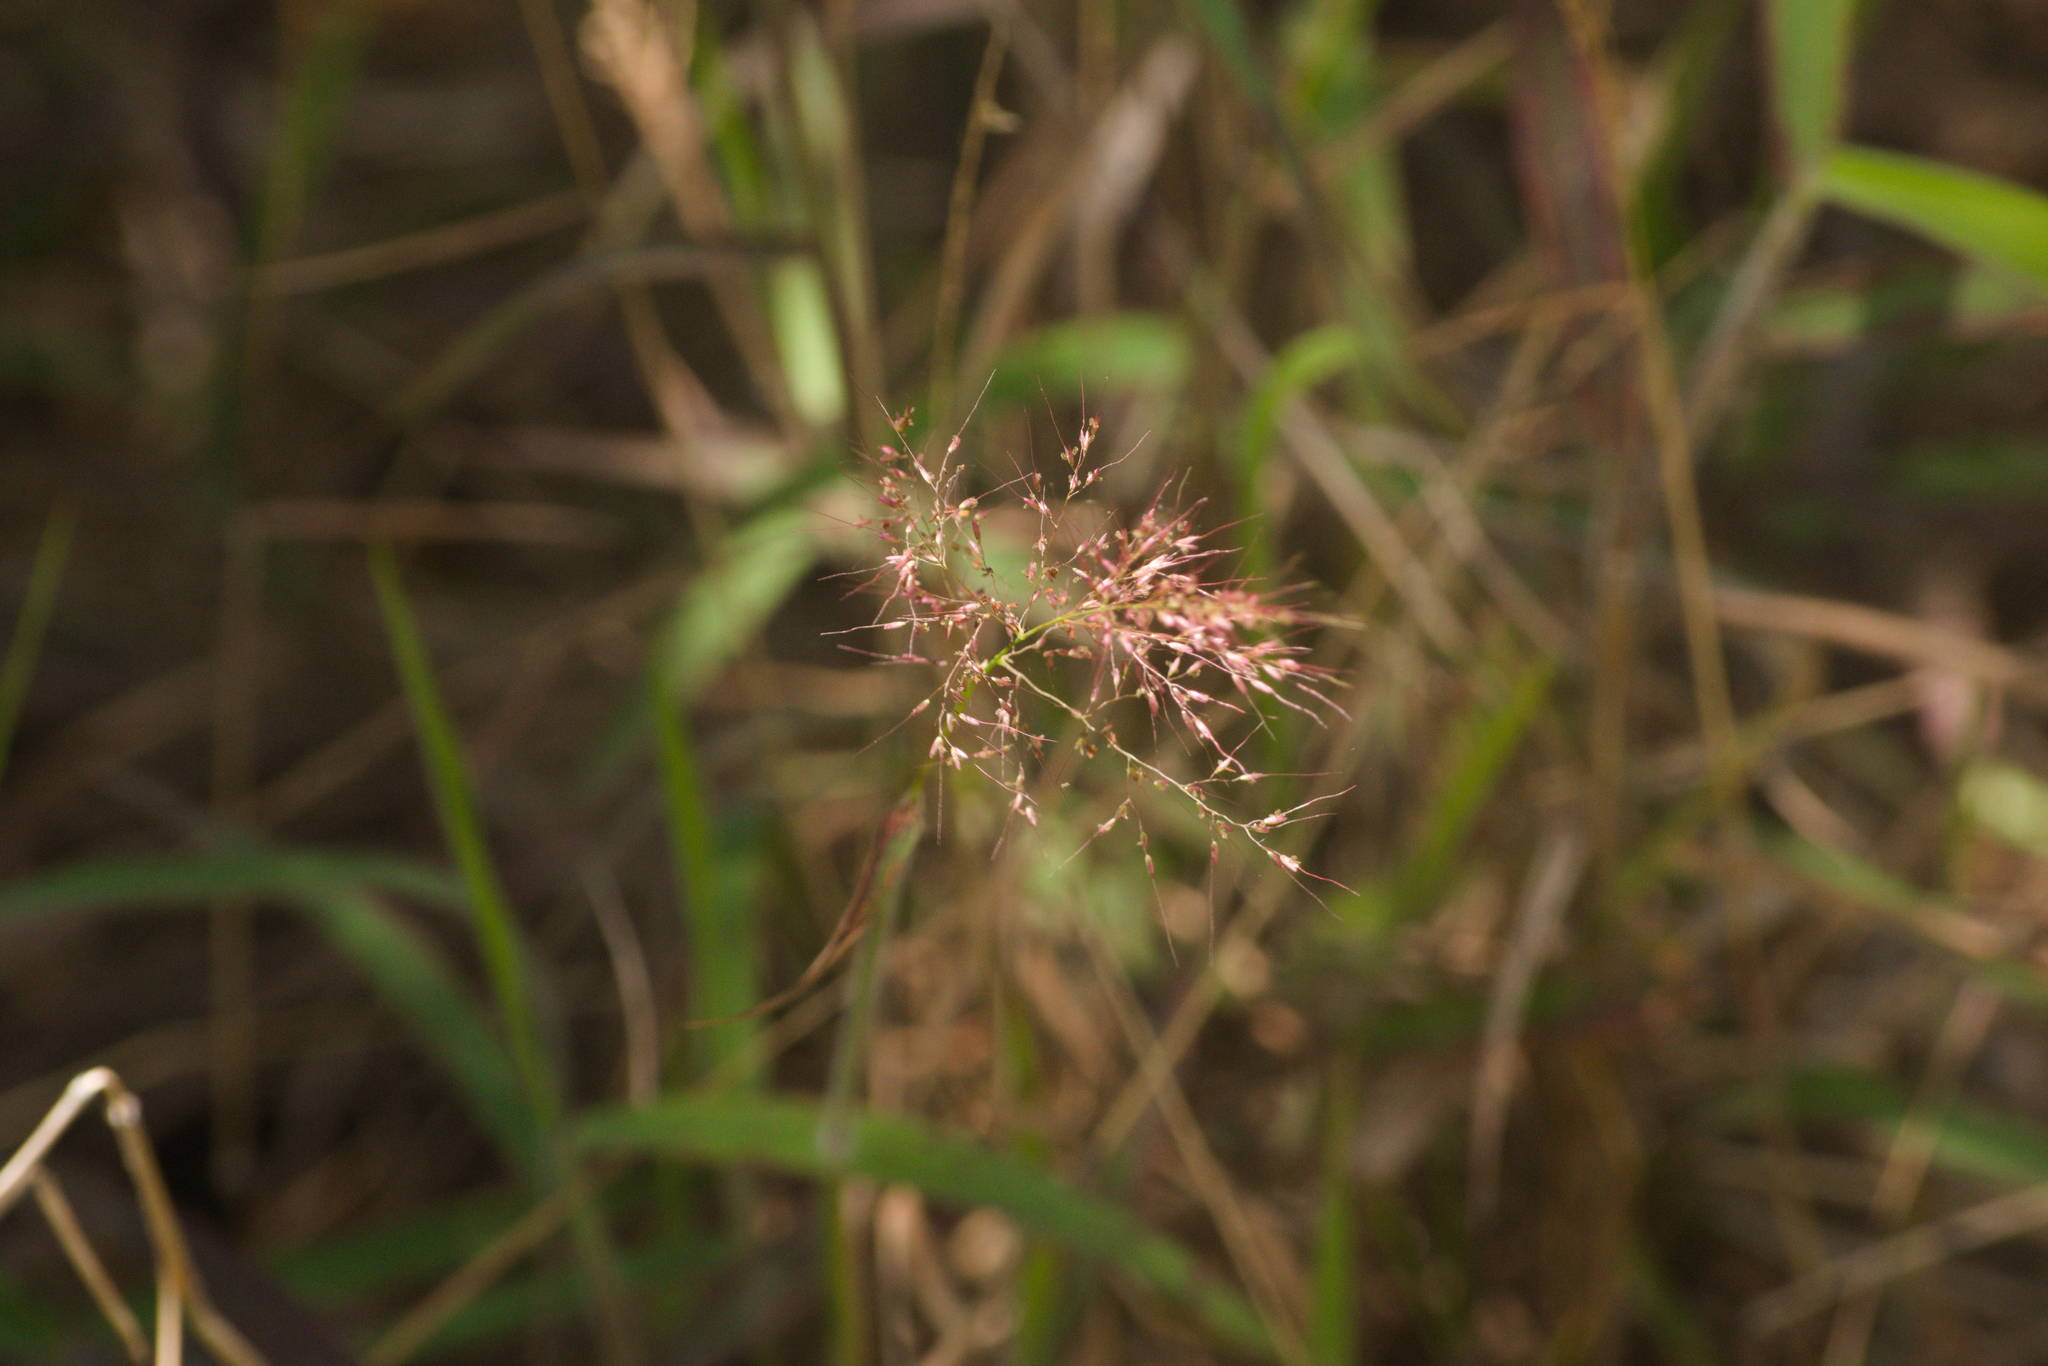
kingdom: Plantae
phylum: Tracheophyta
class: Liliopsida
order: Poales
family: Poaceae
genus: Melinis
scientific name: Melinis minutiflora
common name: Molassesgrass
